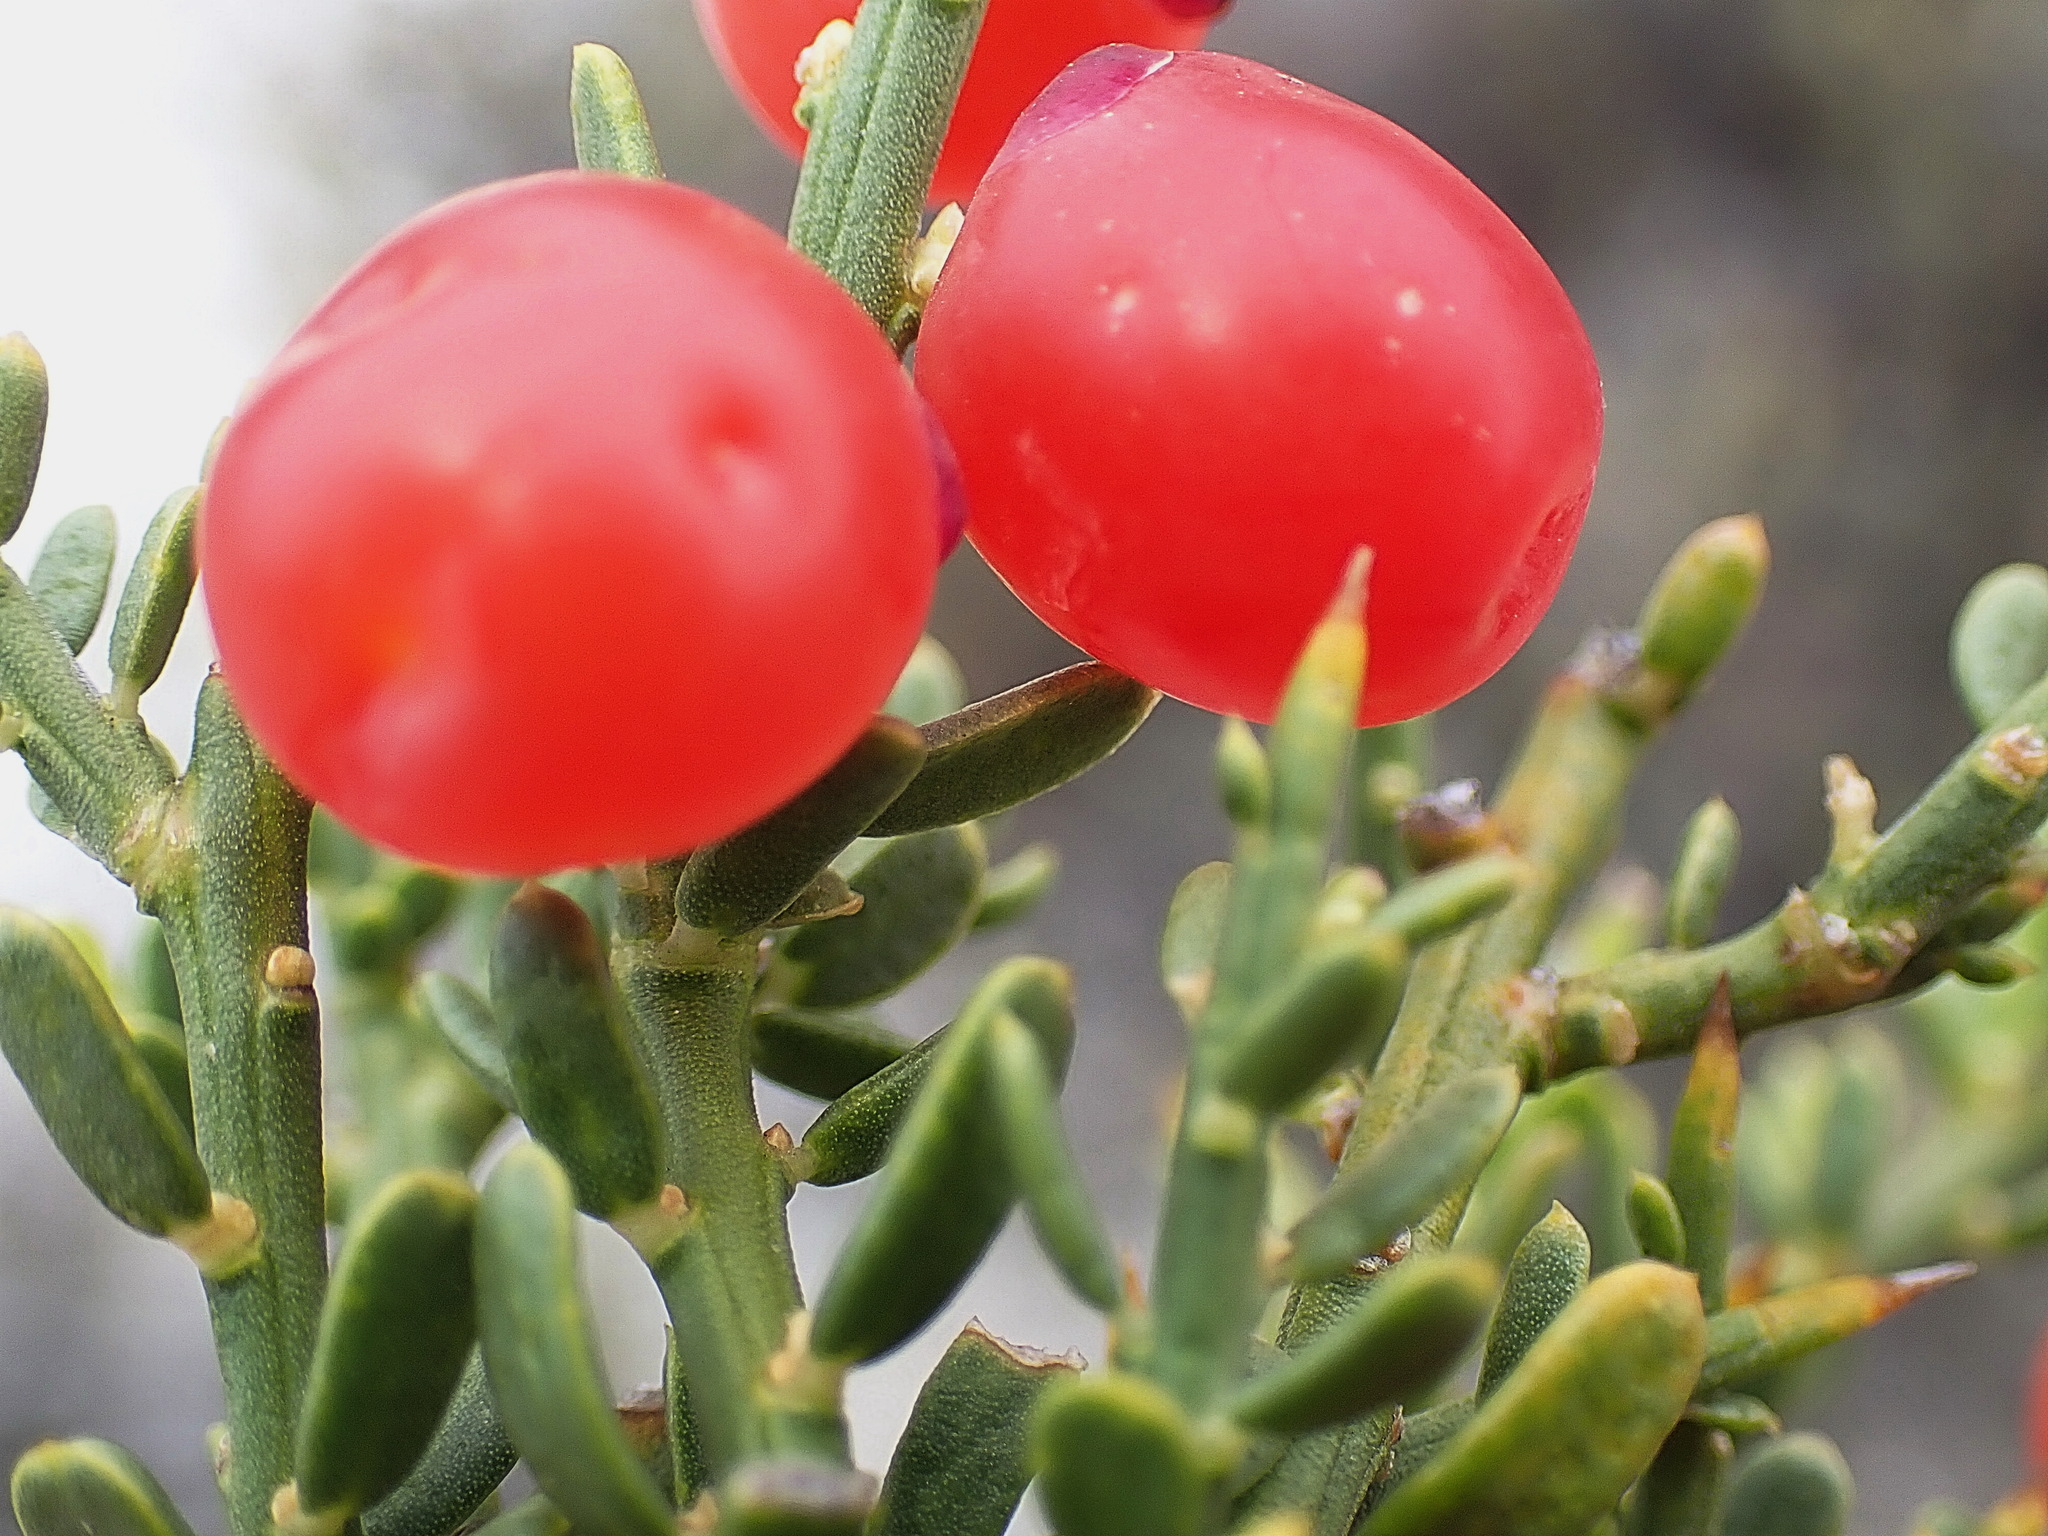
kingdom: Plantae
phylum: Tracheophyta
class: Magnoliopsida
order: Fabales
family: Polygalaceae
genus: Muraltia
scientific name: Muraltia spinosa
